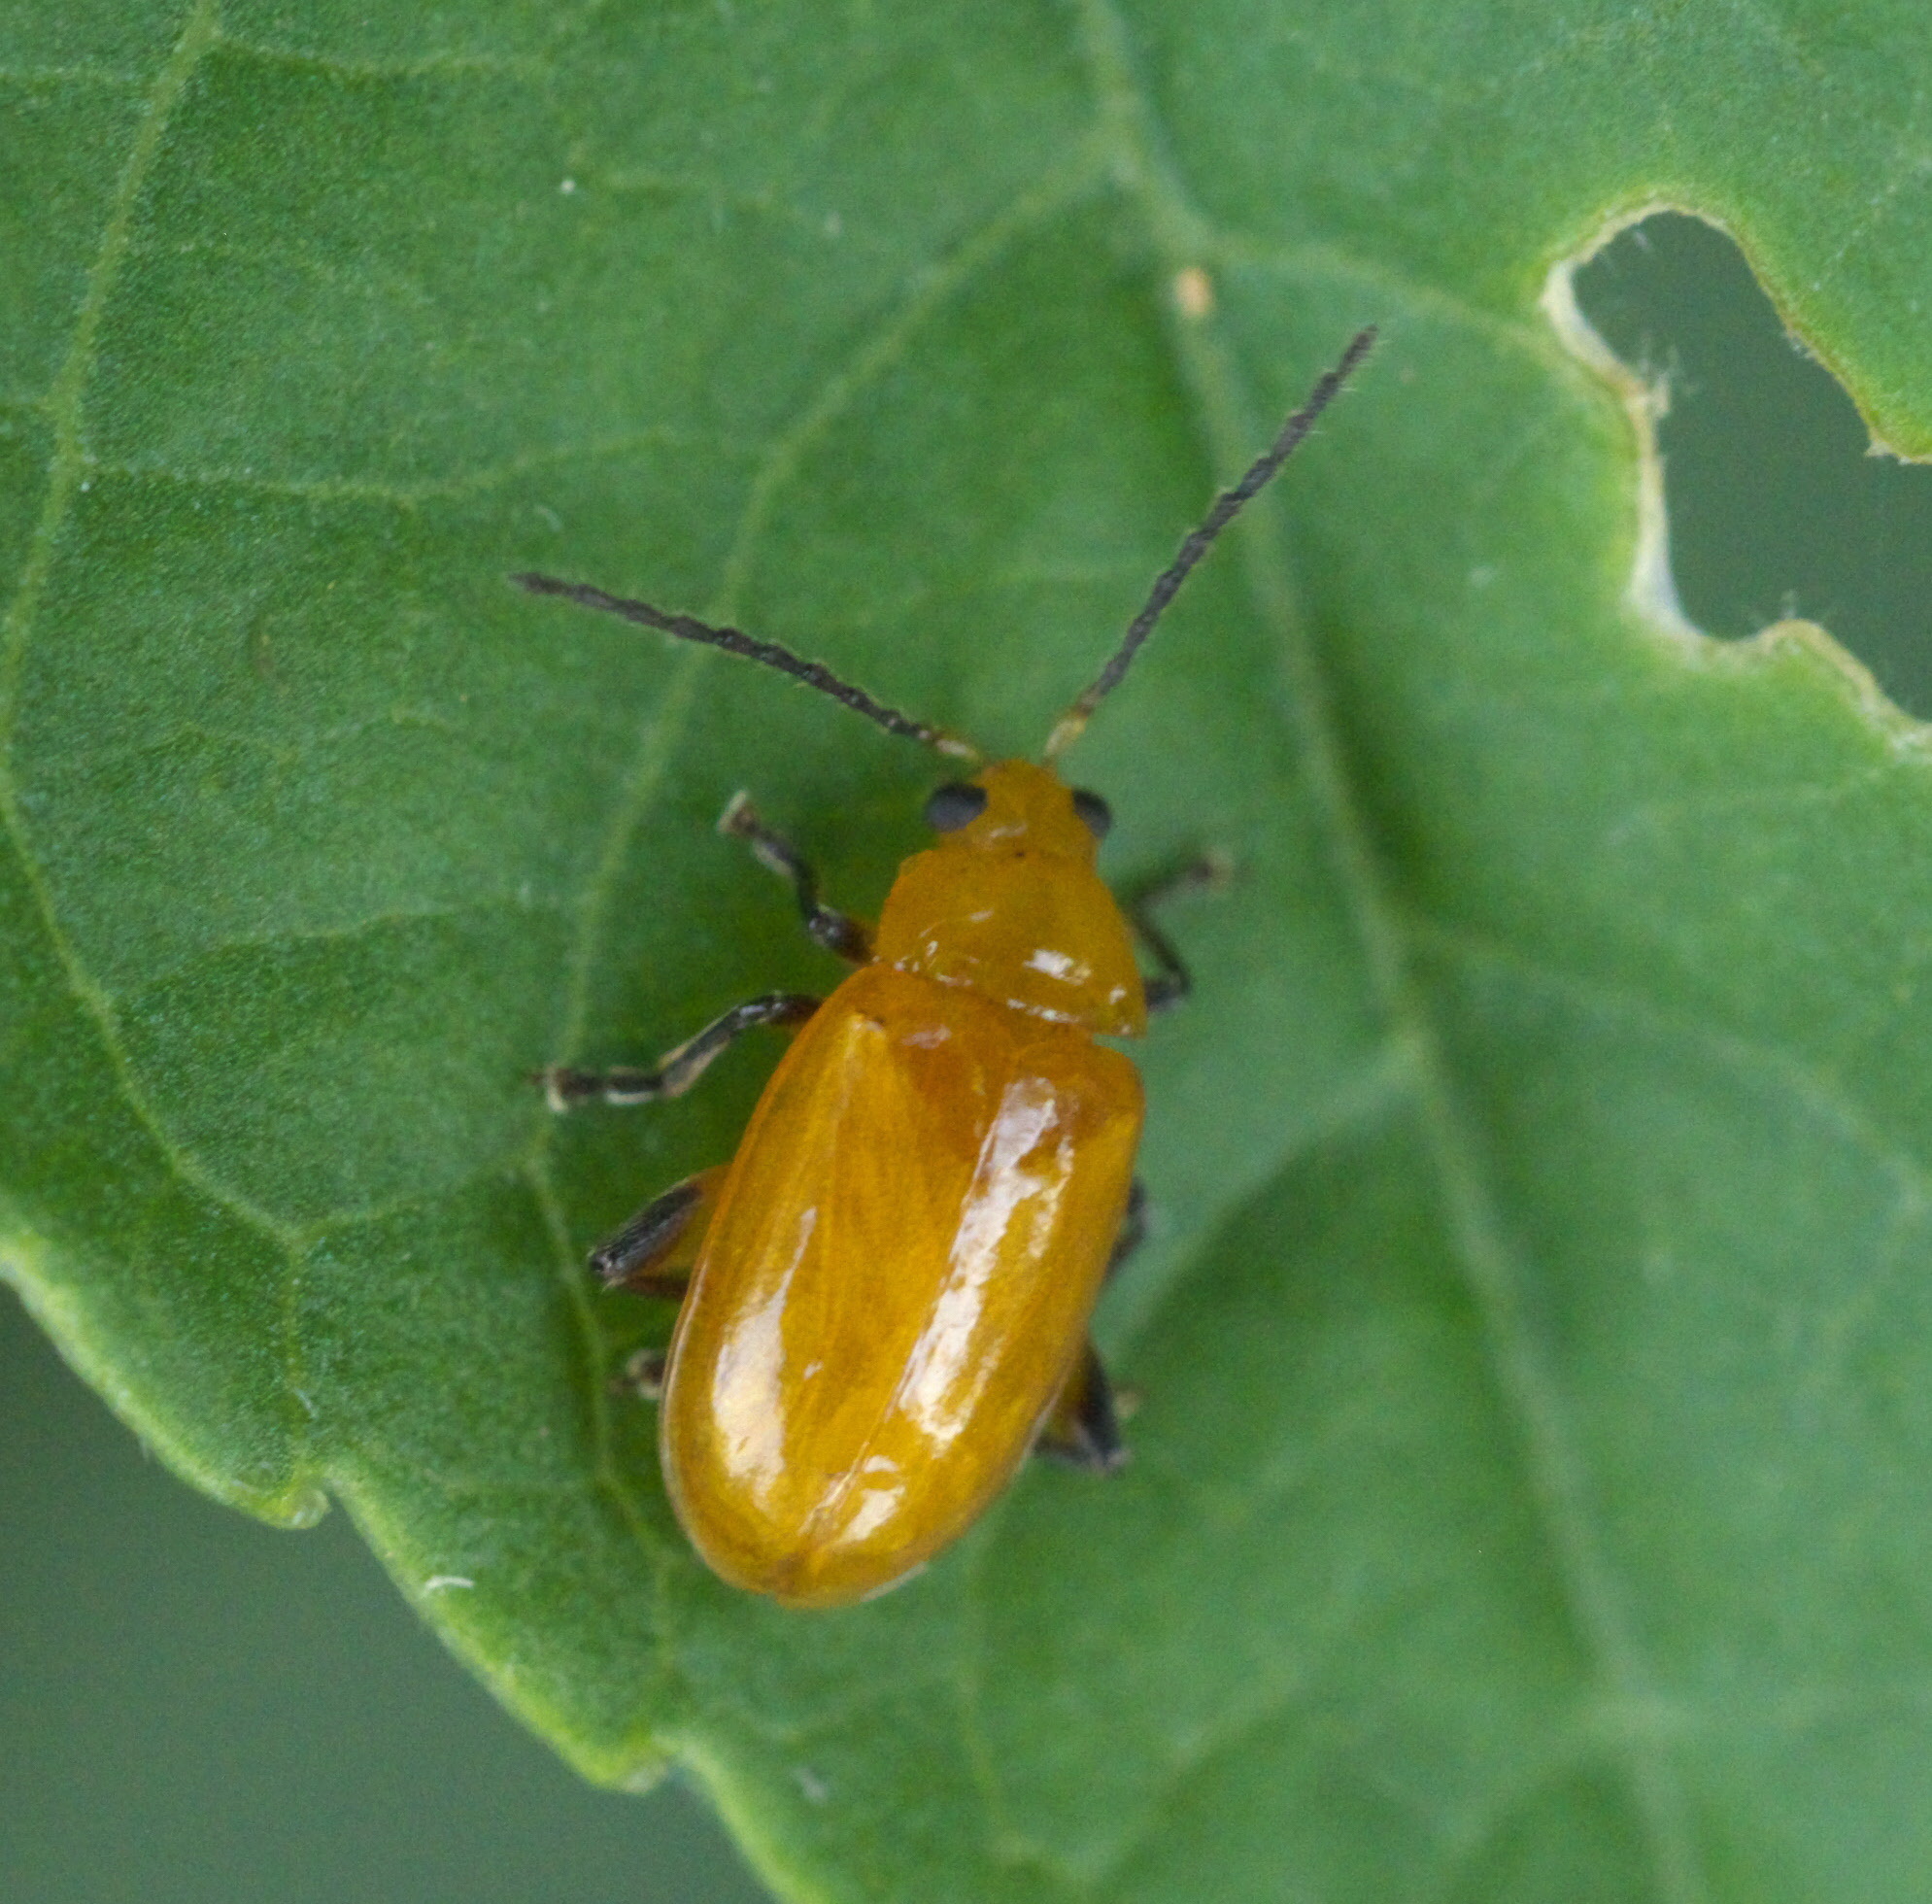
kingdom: Animalia
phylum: Arthropoda
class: Insecta
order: Coleoptera
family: Chrysomelidae
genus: Parchicola
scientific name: Parchicola tibialis
